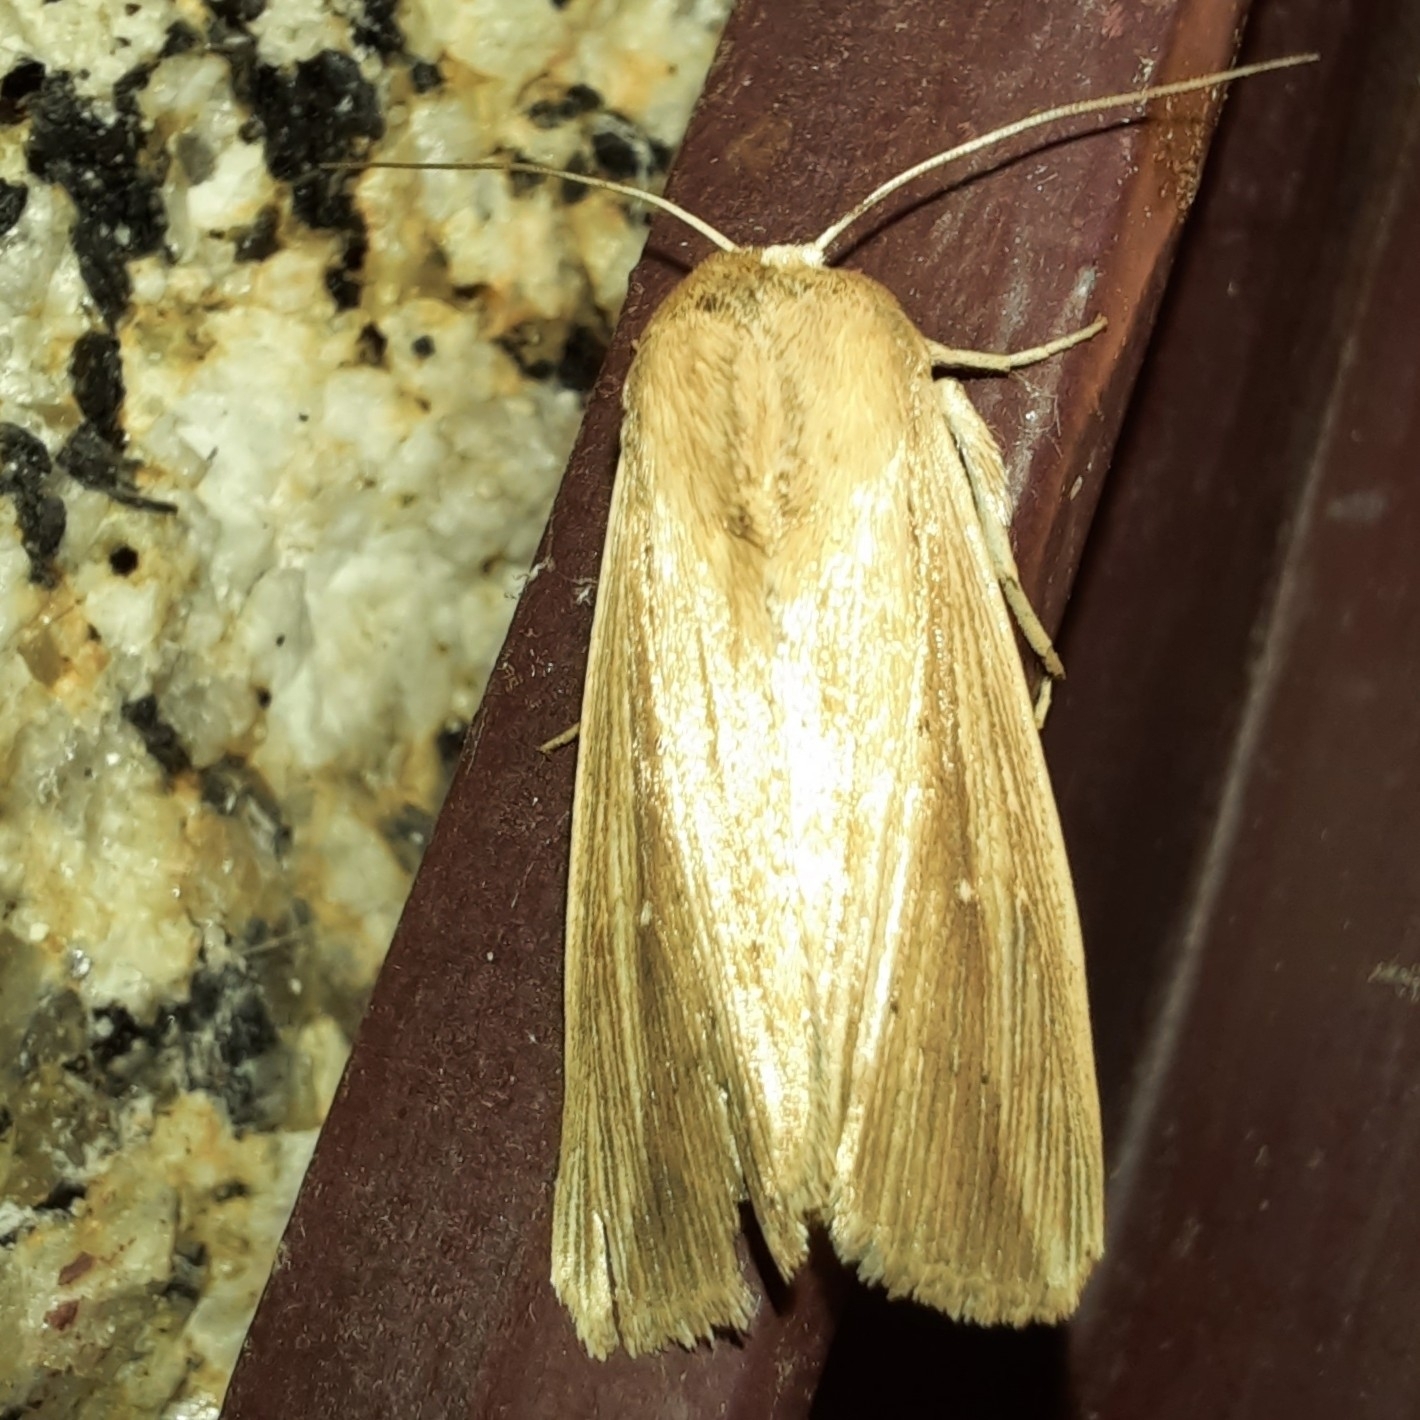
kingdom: Animalia
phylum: Arthropoda
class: Insecta
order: Lepidoptera
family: Noctuidae
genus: Leucania
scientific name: Leucania loreyi
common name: The cosmopolitan
